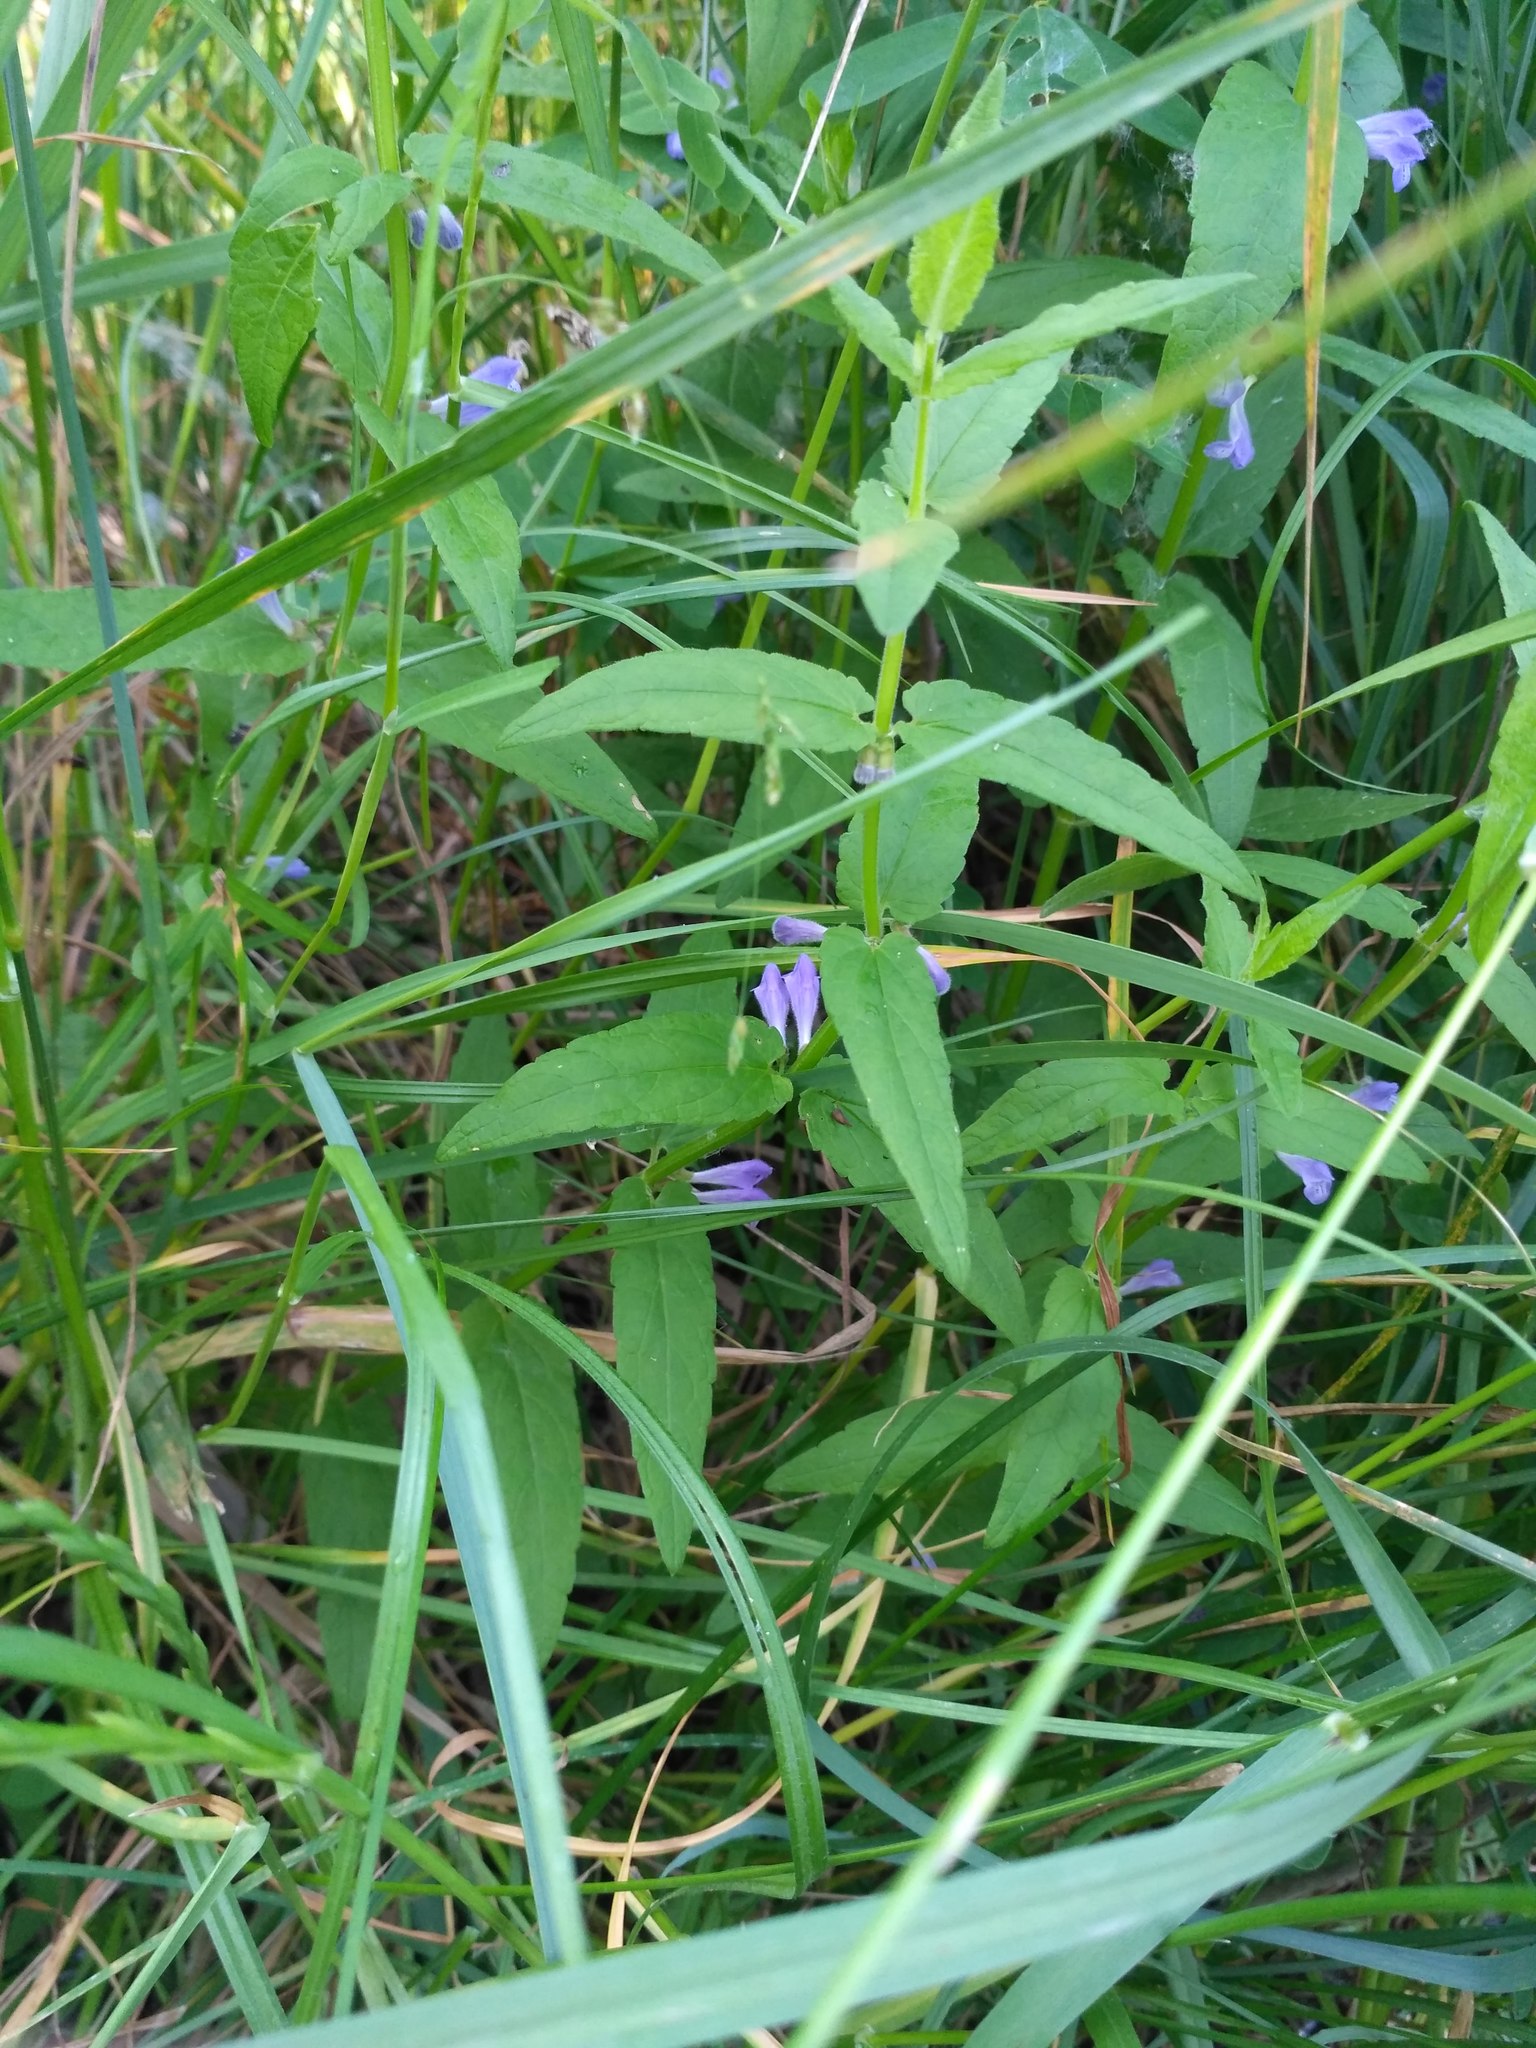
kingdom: Plantae
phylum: Tracheophyta
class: Magnoliopsida
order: Lamiales
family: Lamiaceae
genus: Scutellaria
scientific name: Scutellaria galericulata
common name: Skullcap
